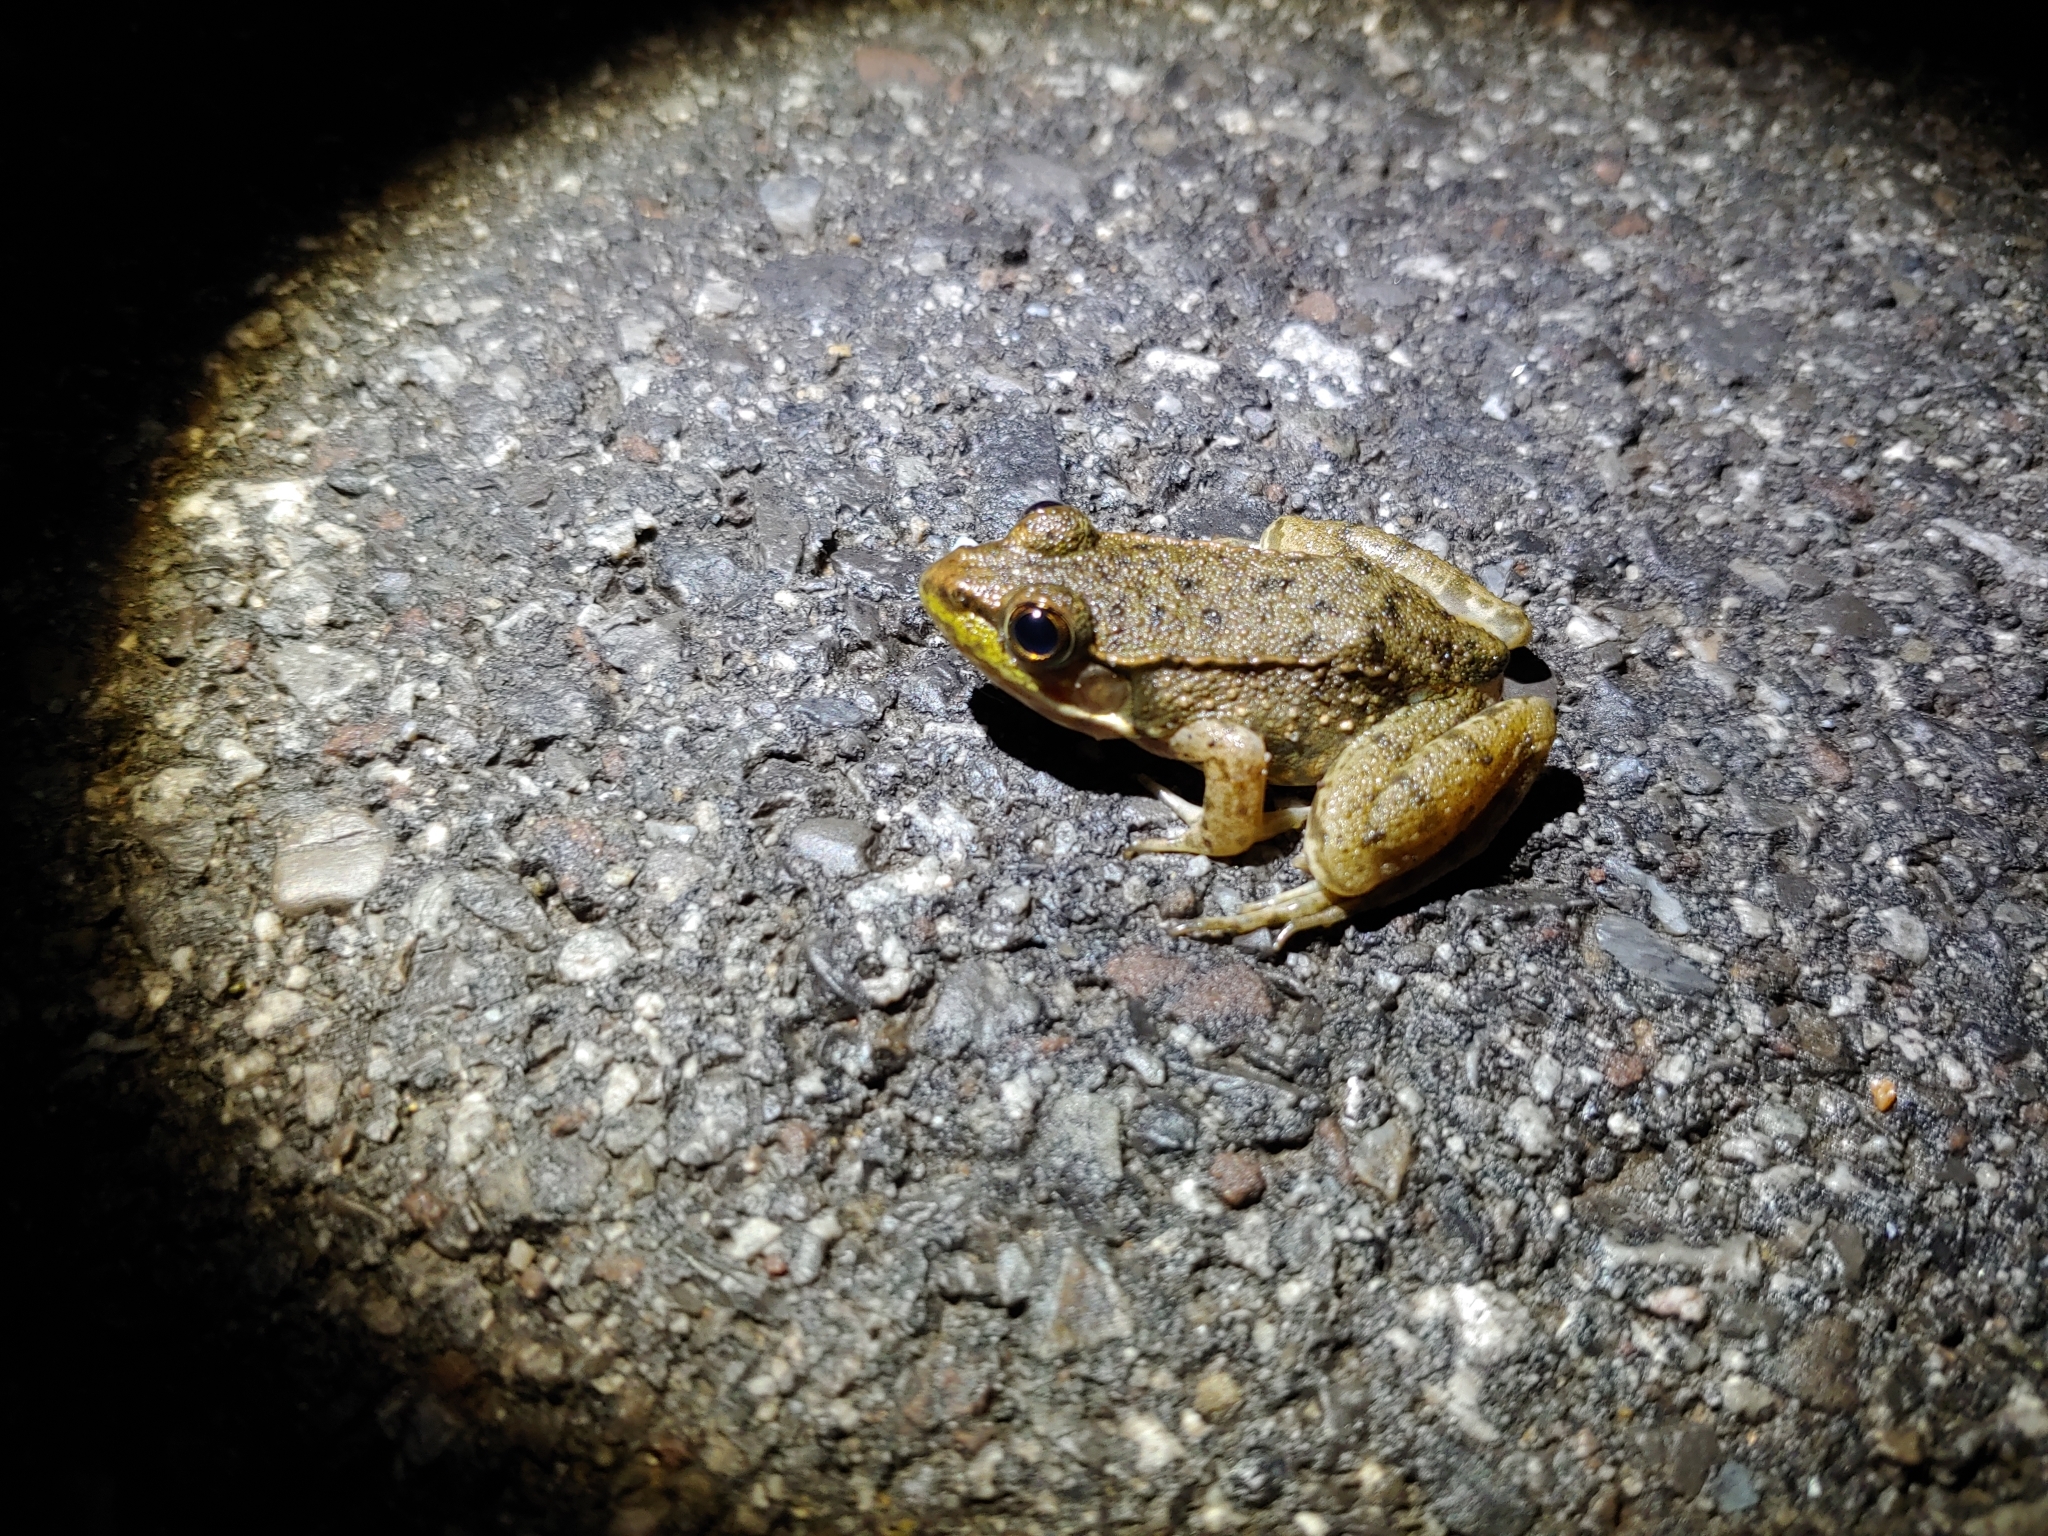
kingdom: Animalia
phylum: Chordata
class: Amphibia
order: Anura
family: Ranidae
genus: Lithobates
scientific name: Lithobates clamitans
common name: Green frog
